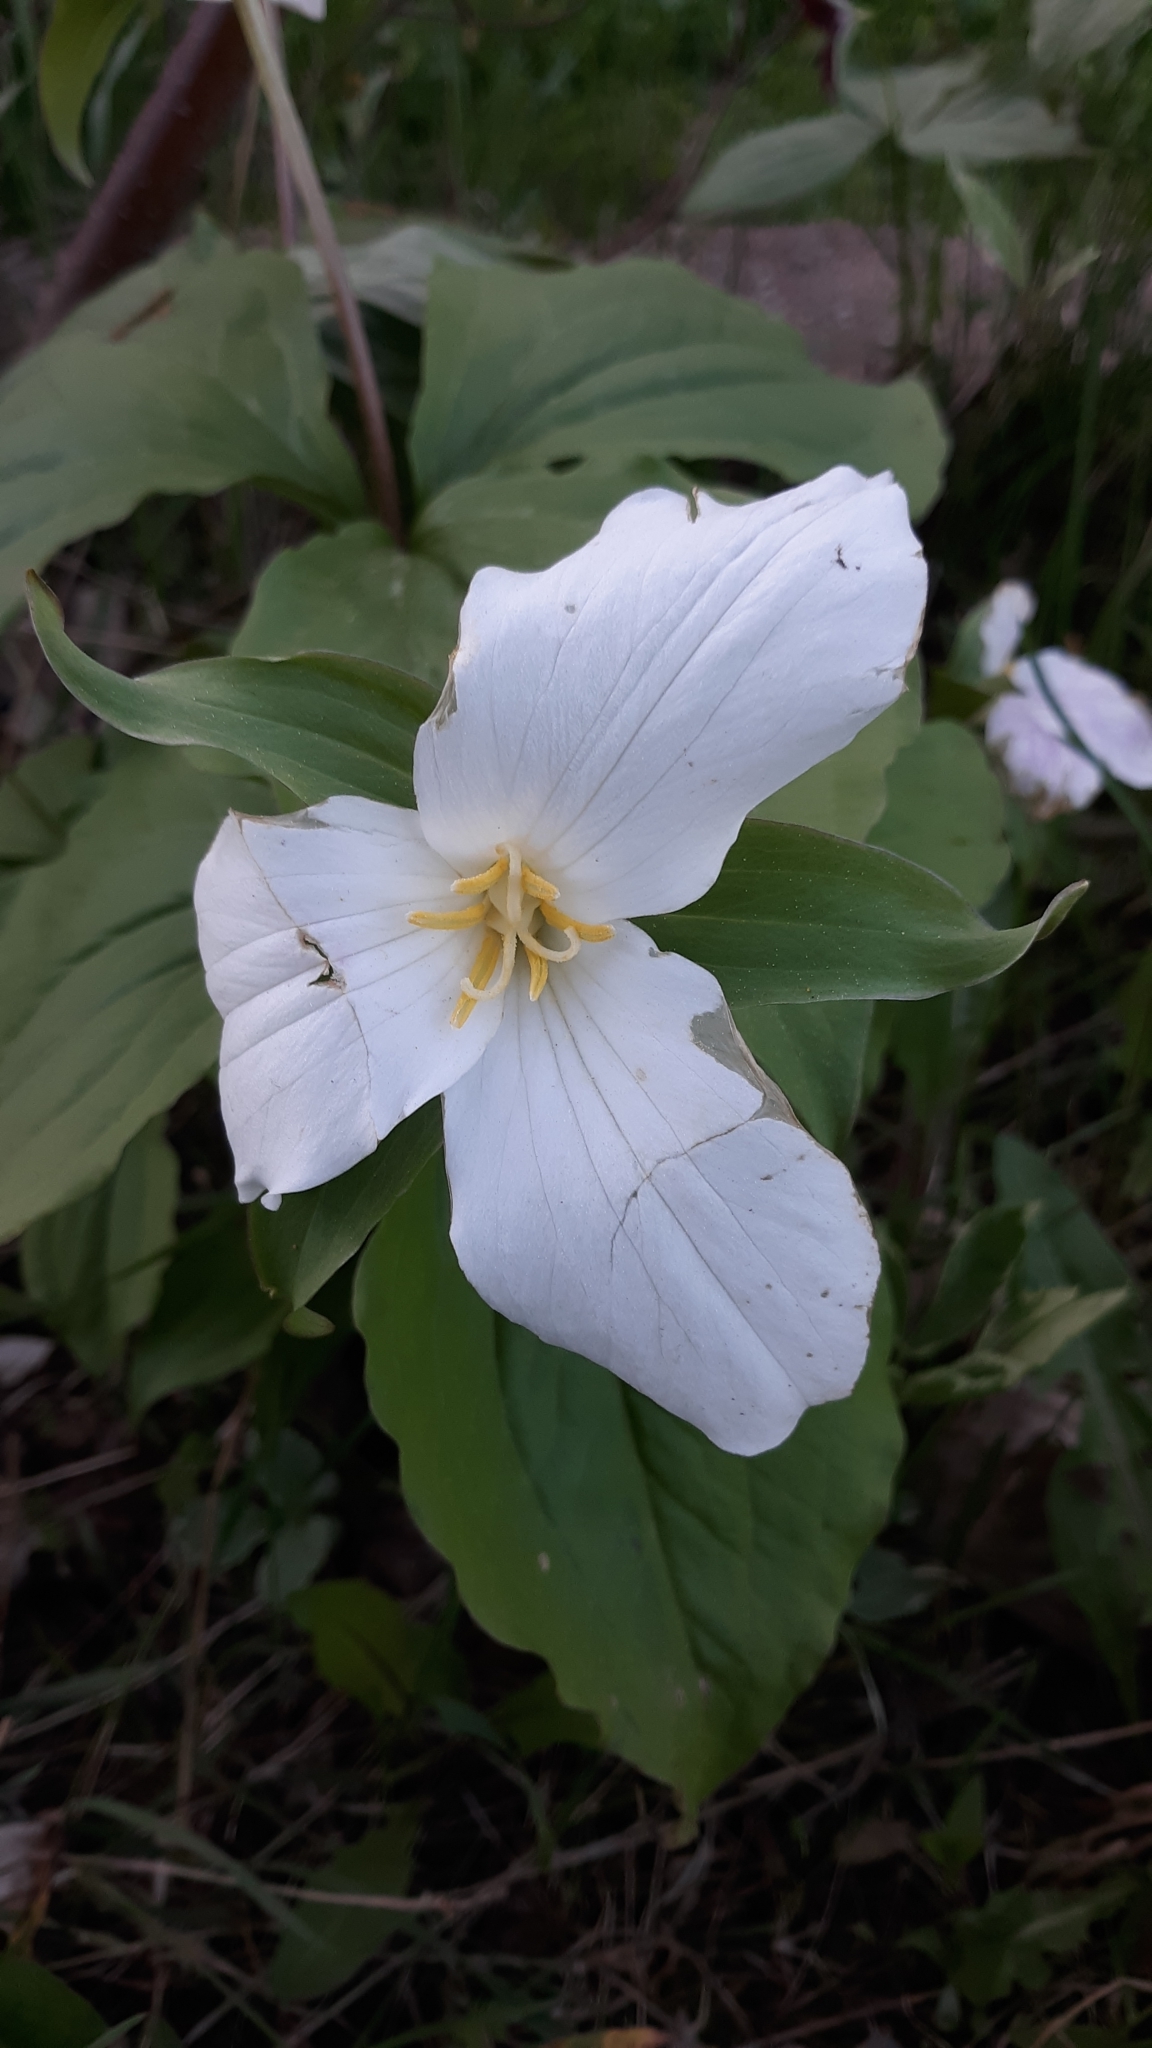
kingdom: Plantae
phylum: Tracheophyta
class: Liliopsida
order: Liliales
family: Melanthiaceae
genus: Trillium
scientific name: Trillium grandiflorum
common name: Great white trillium
